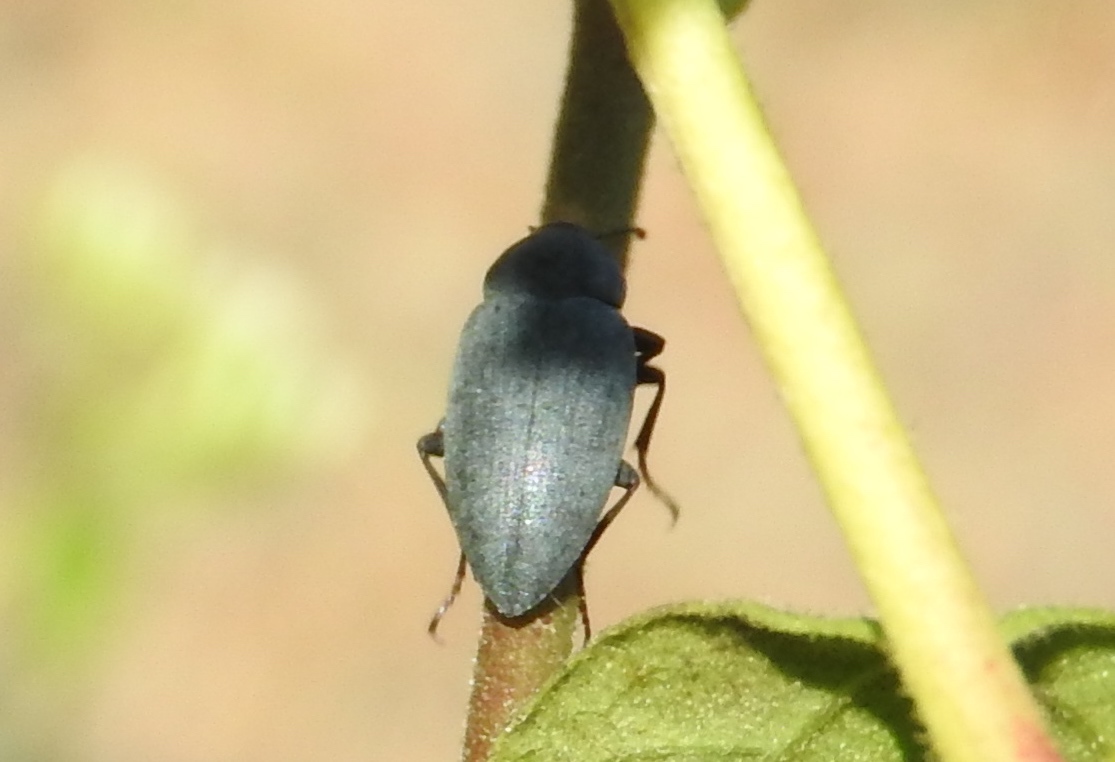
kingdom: Animalia
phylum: Arthropoda
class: Insecta
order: Coleoptera
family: Tenebrionidae
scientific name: Tenebrionidae
